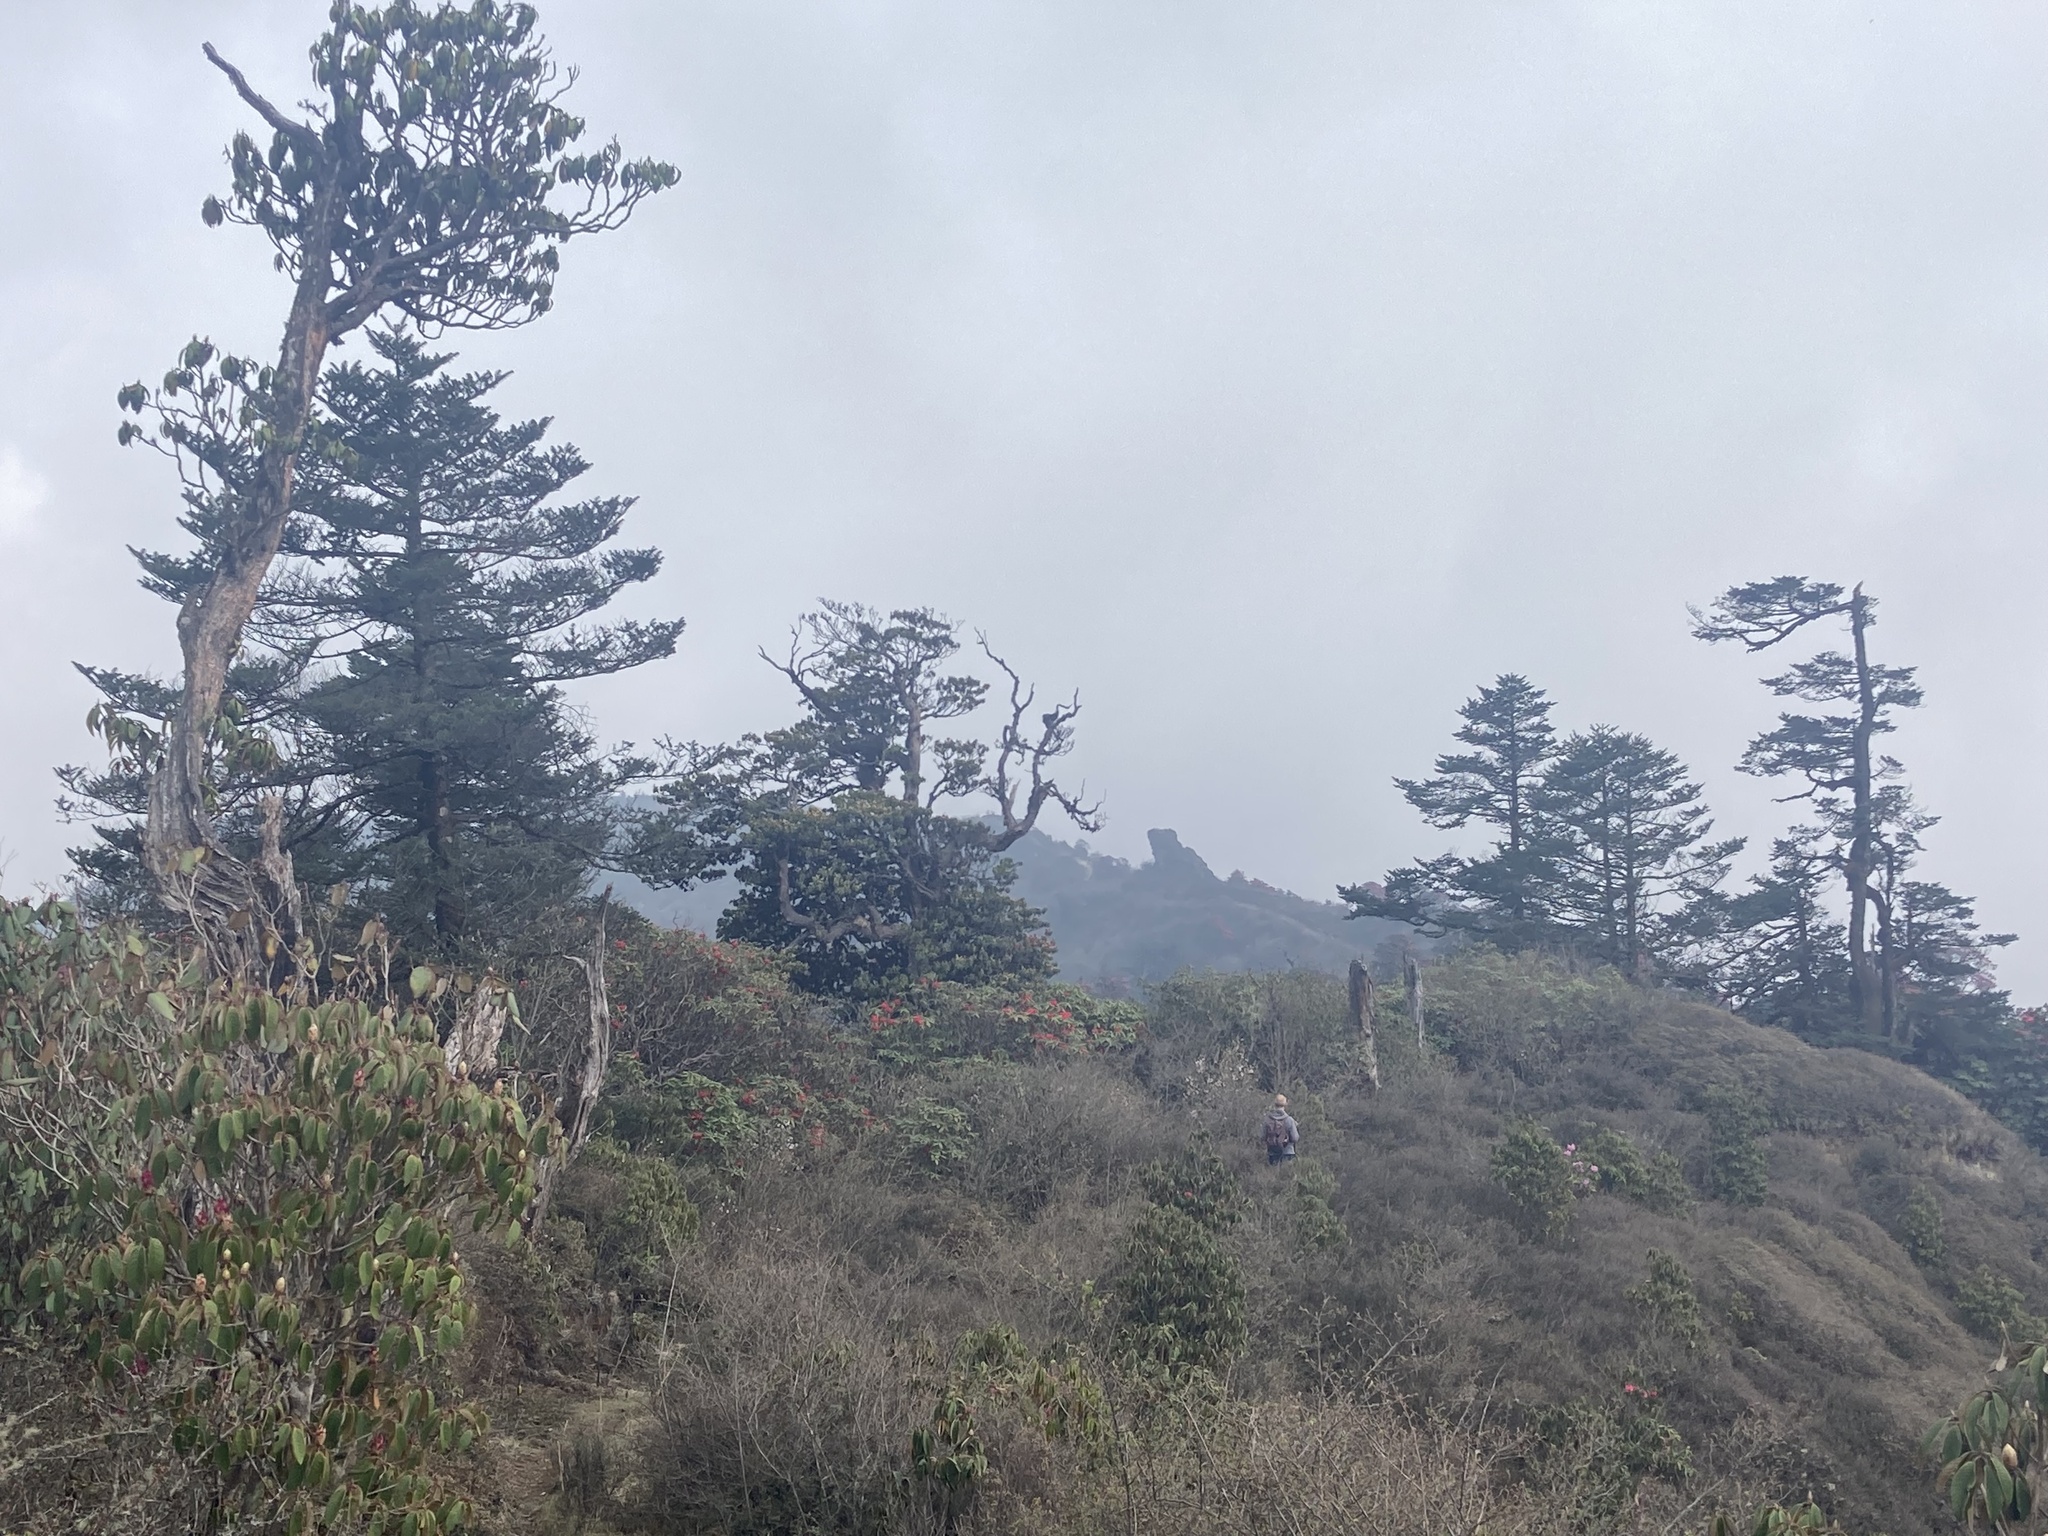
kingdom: Plantae
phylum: Tracheophyta
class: Pinopsida
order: Pinales
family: Pinaceae
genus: Abies
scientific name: Abies densa
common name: Sikkim fir
